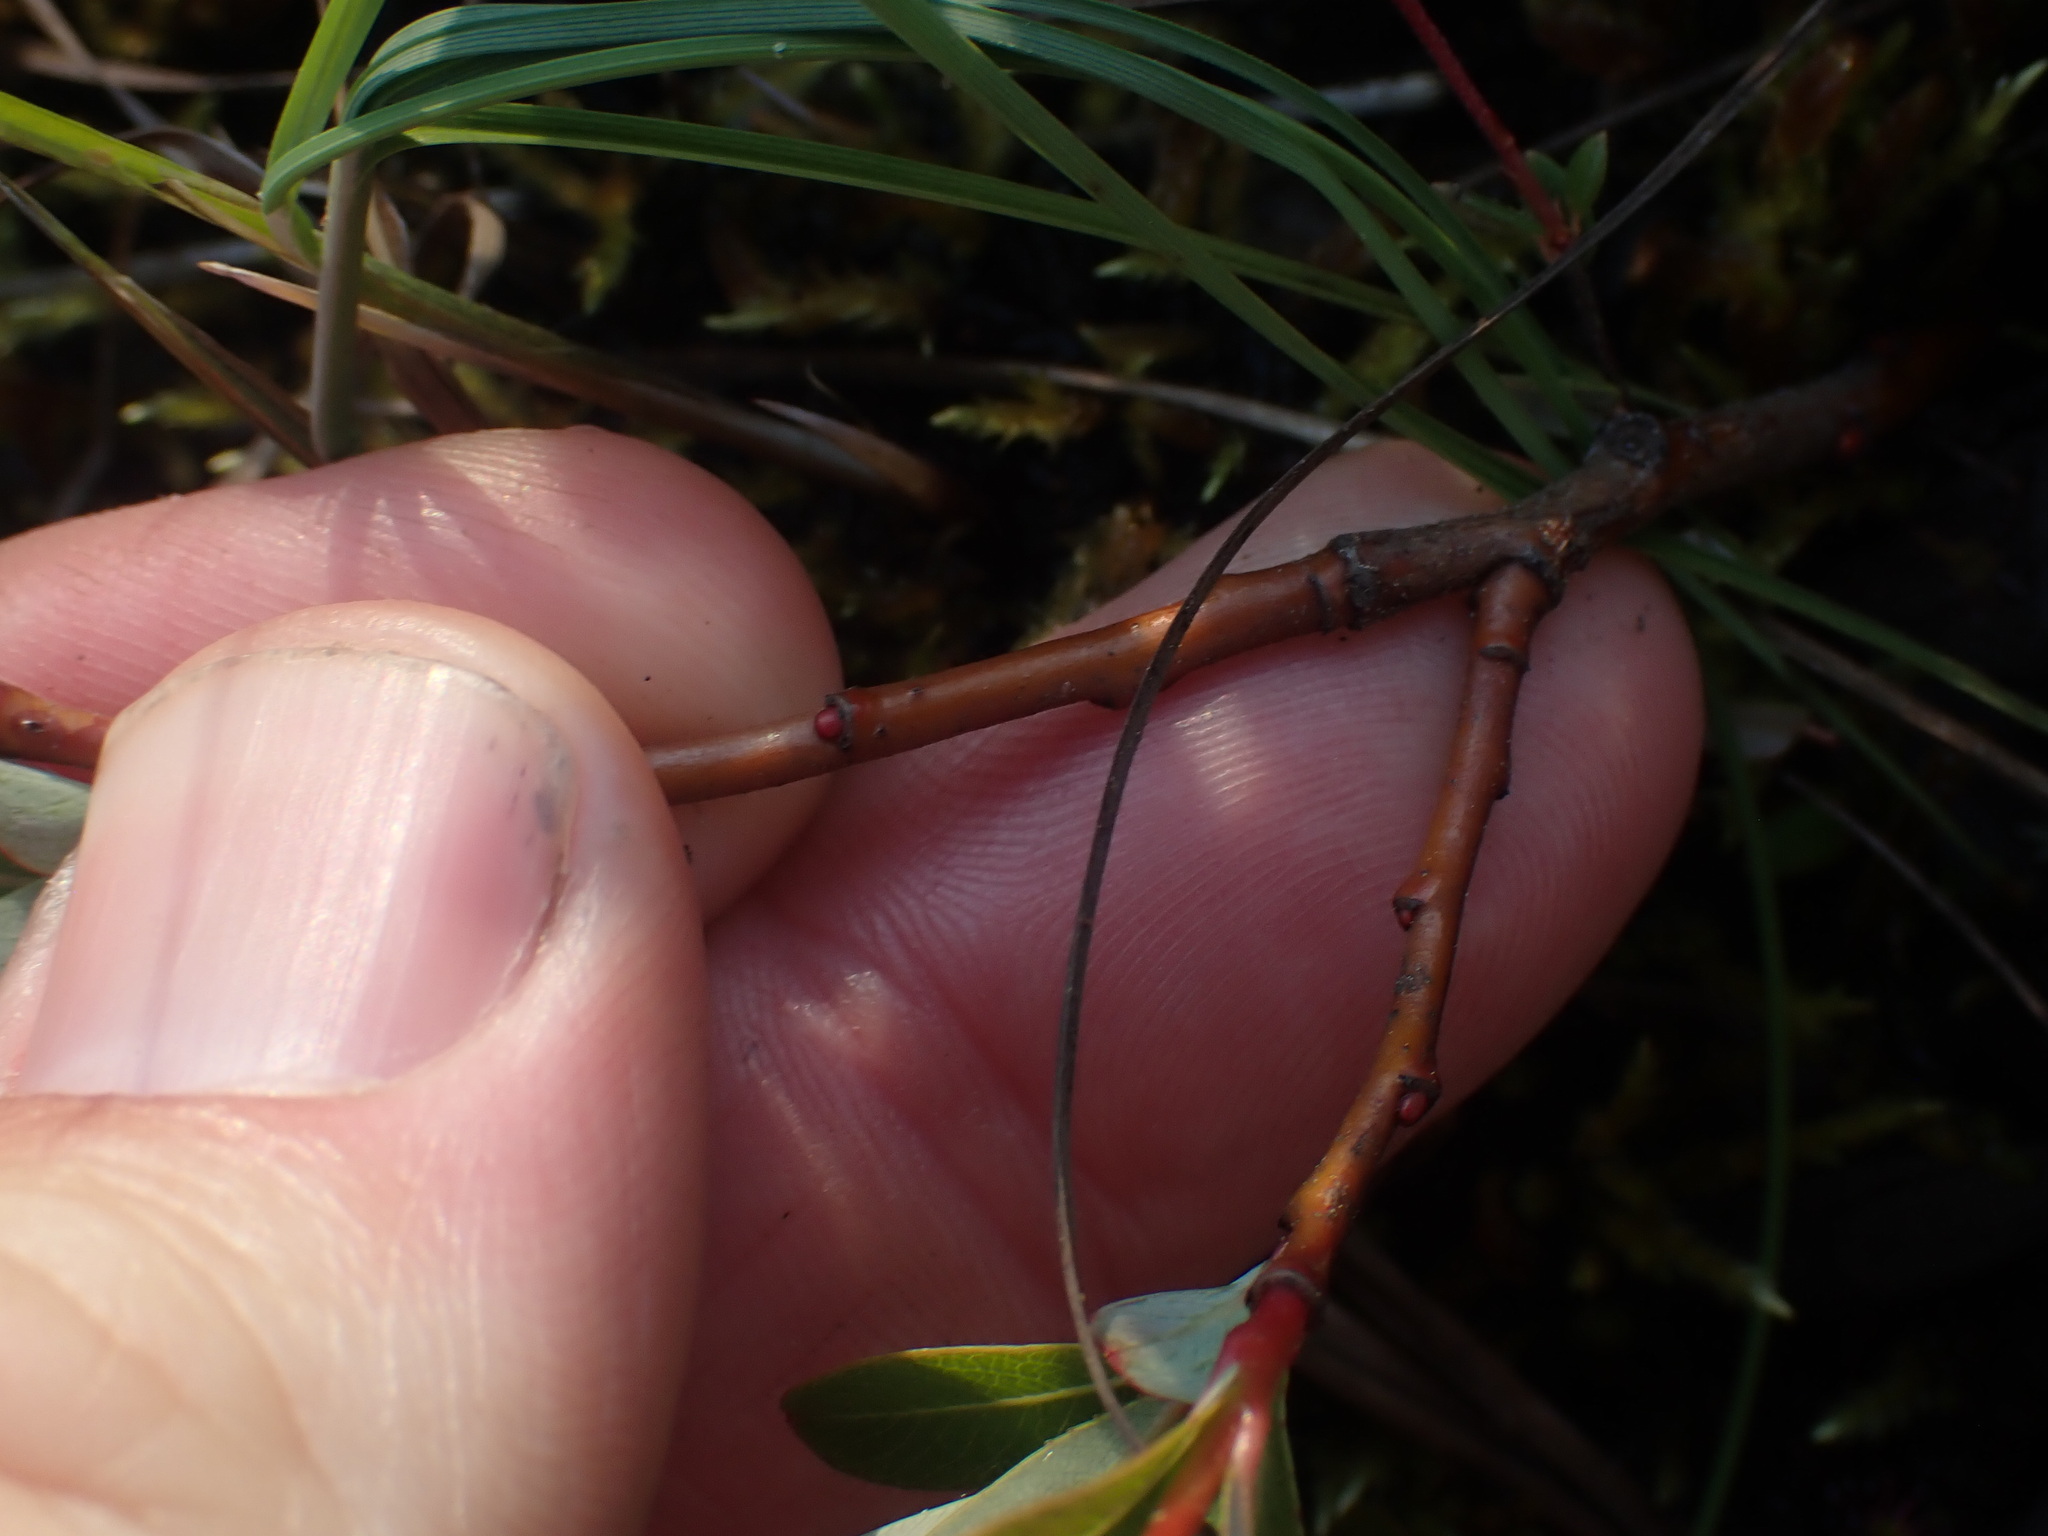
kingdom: Plantae
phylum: Tracheophyta
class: Magnoliopsida
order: Malpighiales
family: Salicaceae
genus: Salix
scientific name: Salix pedicellaris
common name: Bog willow
